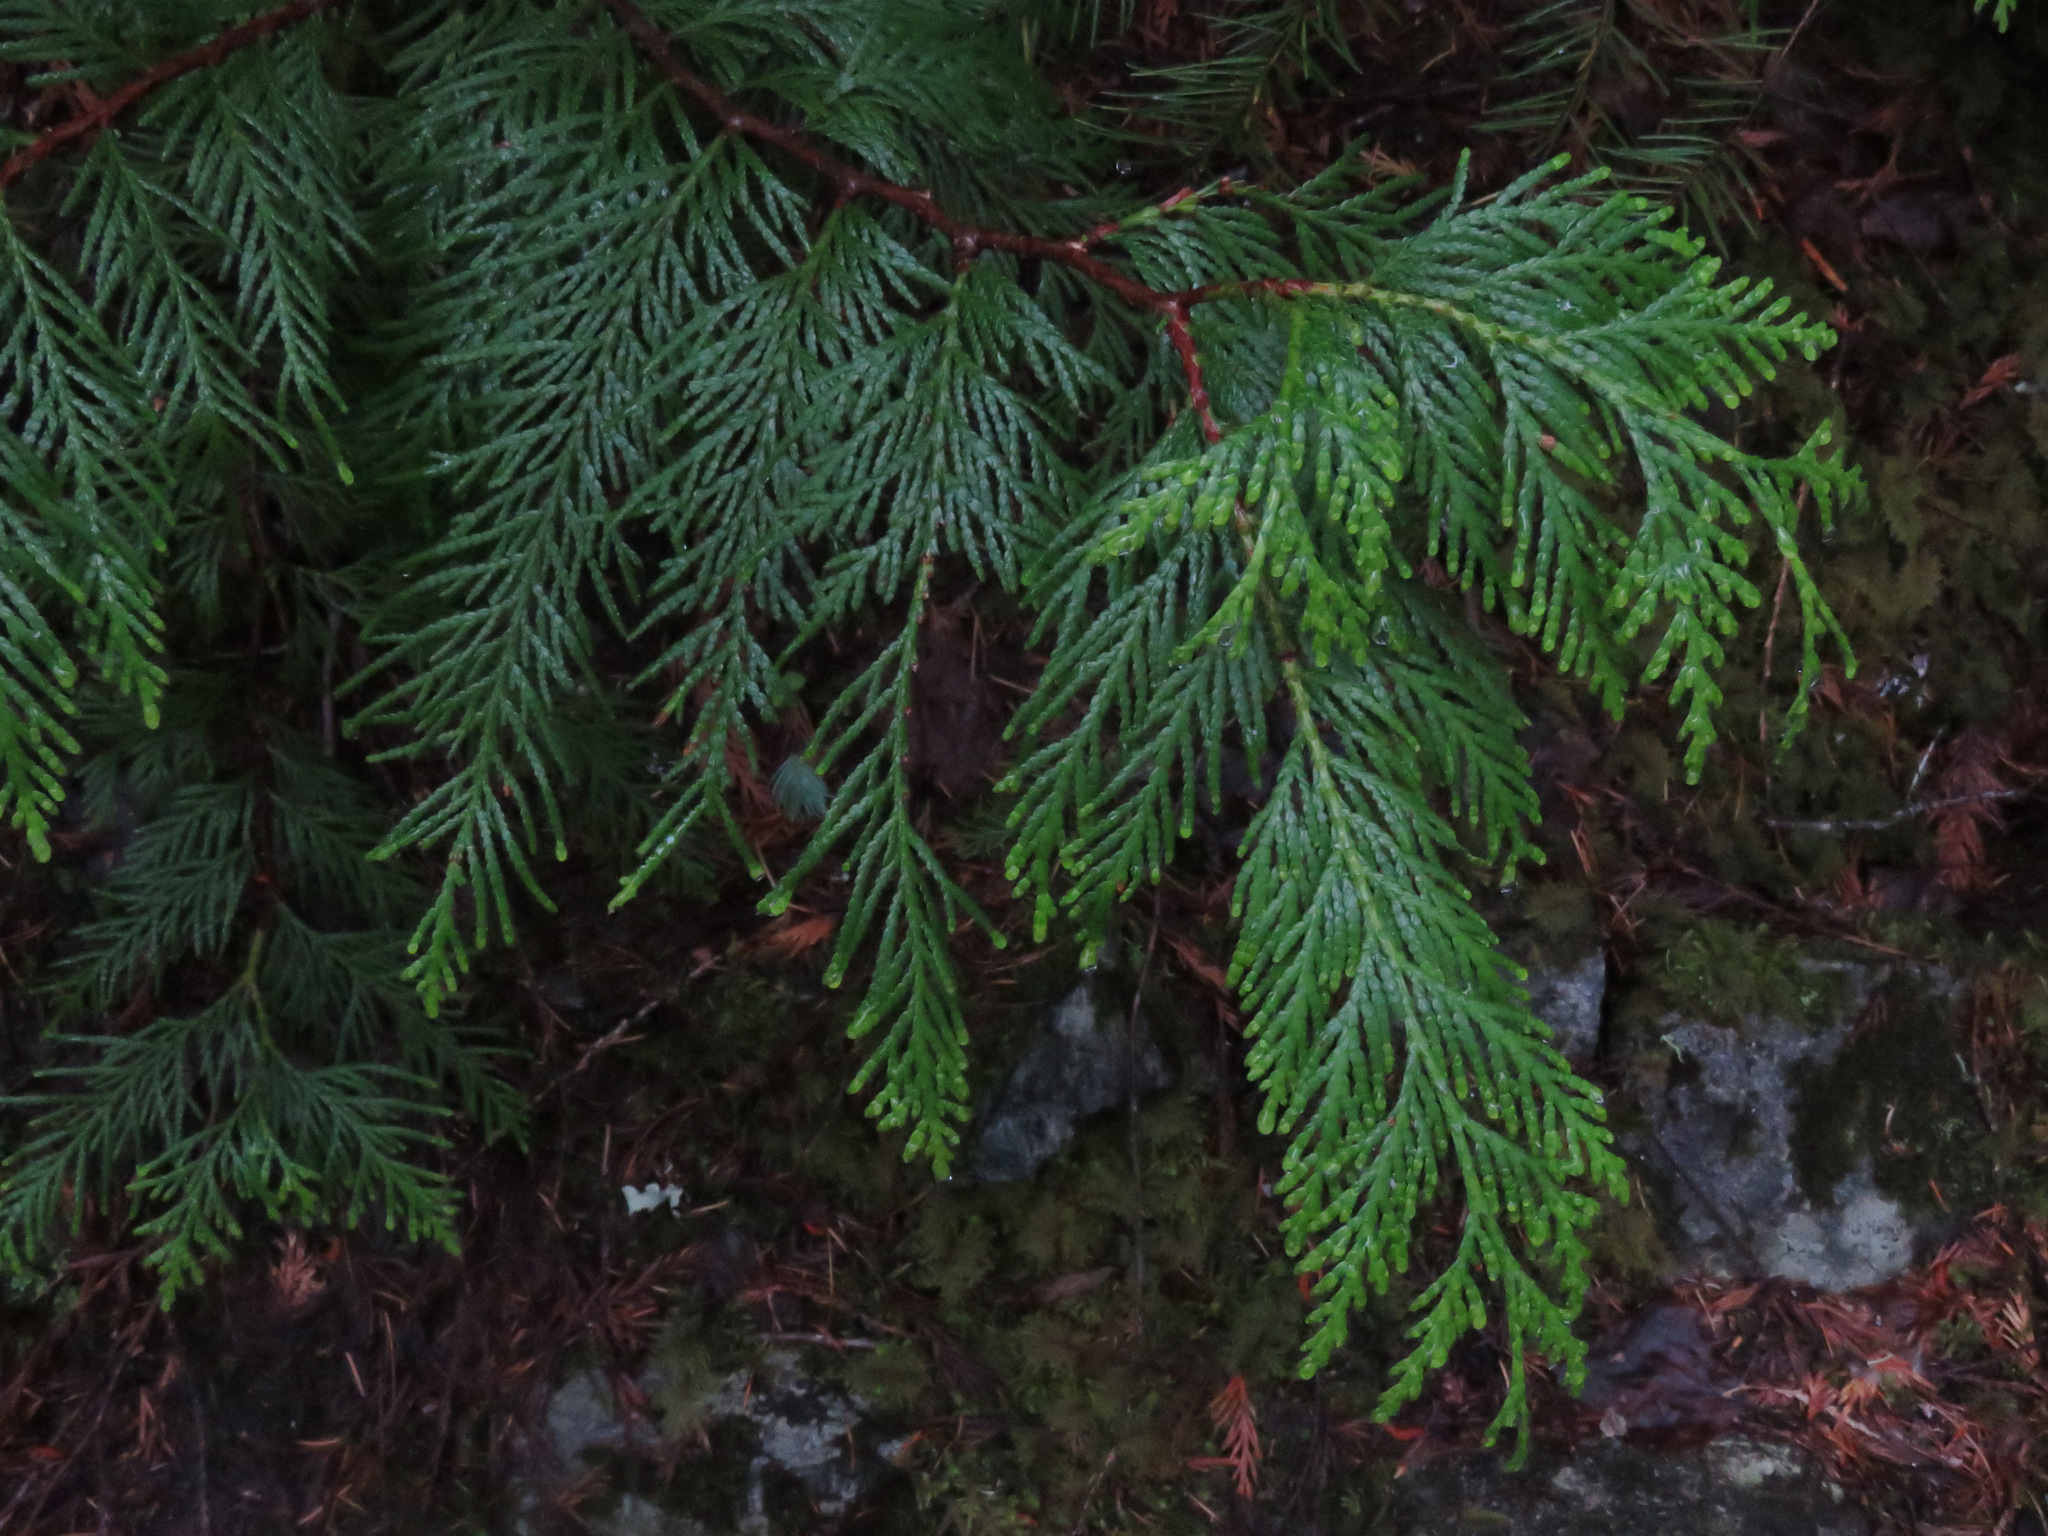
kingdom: Plantae
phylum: Tracheophyta
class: Pinopsida
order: Pinales
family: Cupressaceae
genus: Thuja
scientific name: Thuja plicata
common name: Western red-cedar
